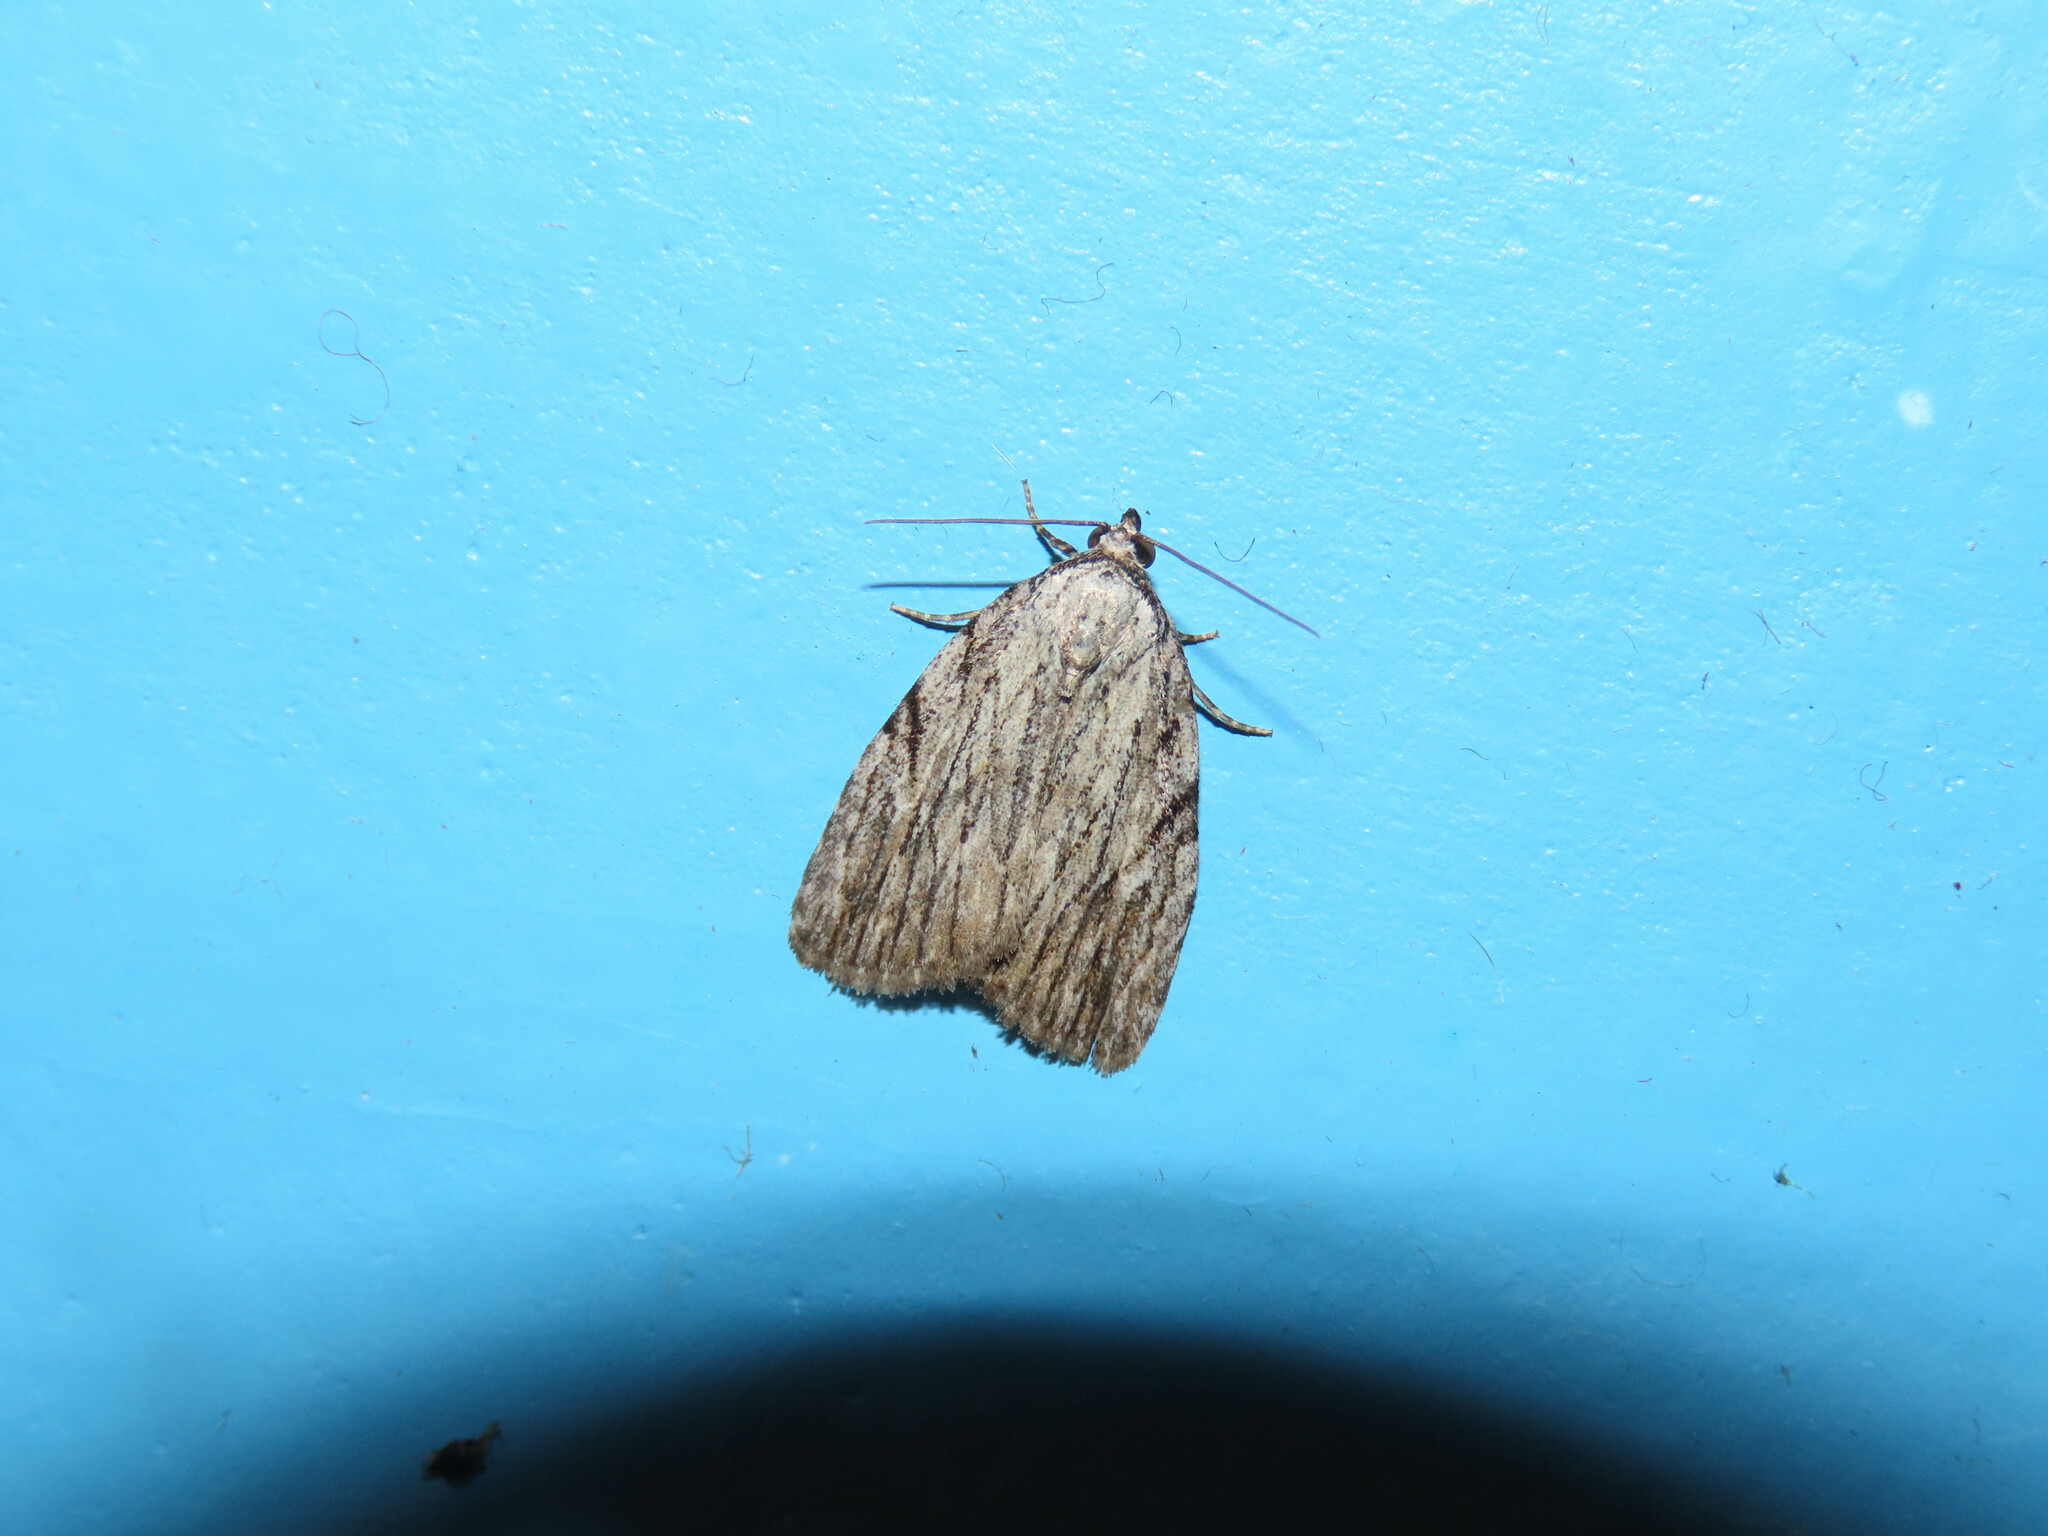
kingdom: Animalia
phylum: Arthropoda
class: Insecta
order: Lepidoptera
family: Noctuidae
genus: Balsa
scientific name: Balsa tristrigella
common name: Three-lined balsa moth
